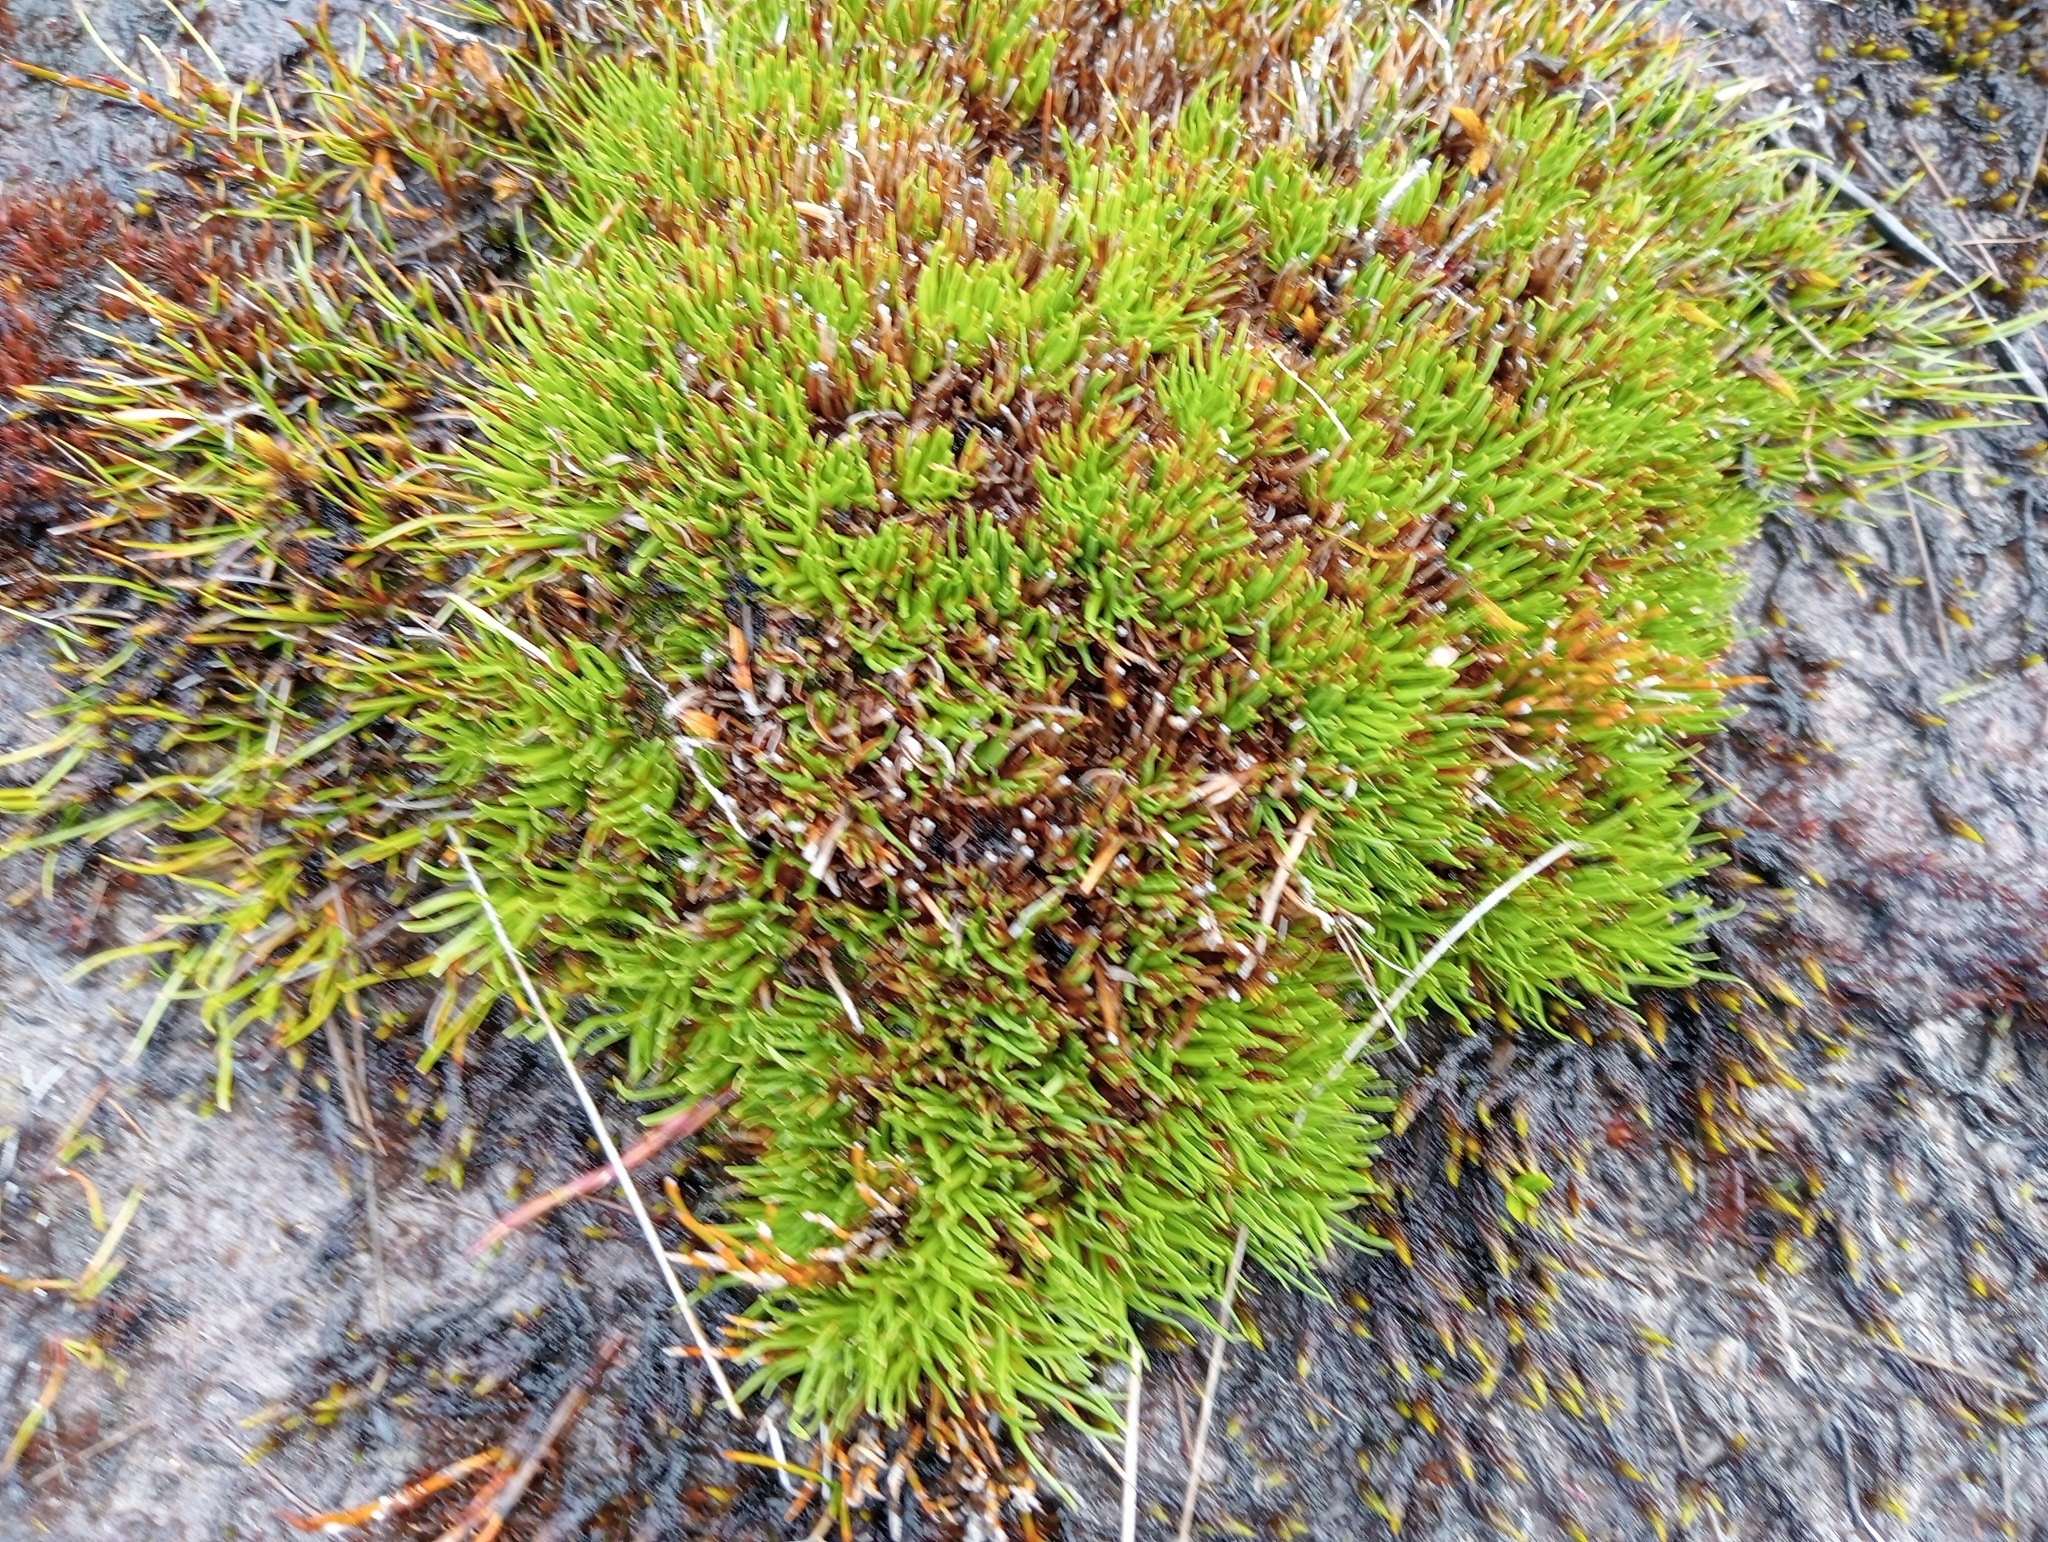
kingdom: Plantae
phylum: Tracheophyta
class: Liliopsida
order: Poales
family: Cyperaceae
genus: Oreobolus
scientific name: Oreobolus pectinatus
